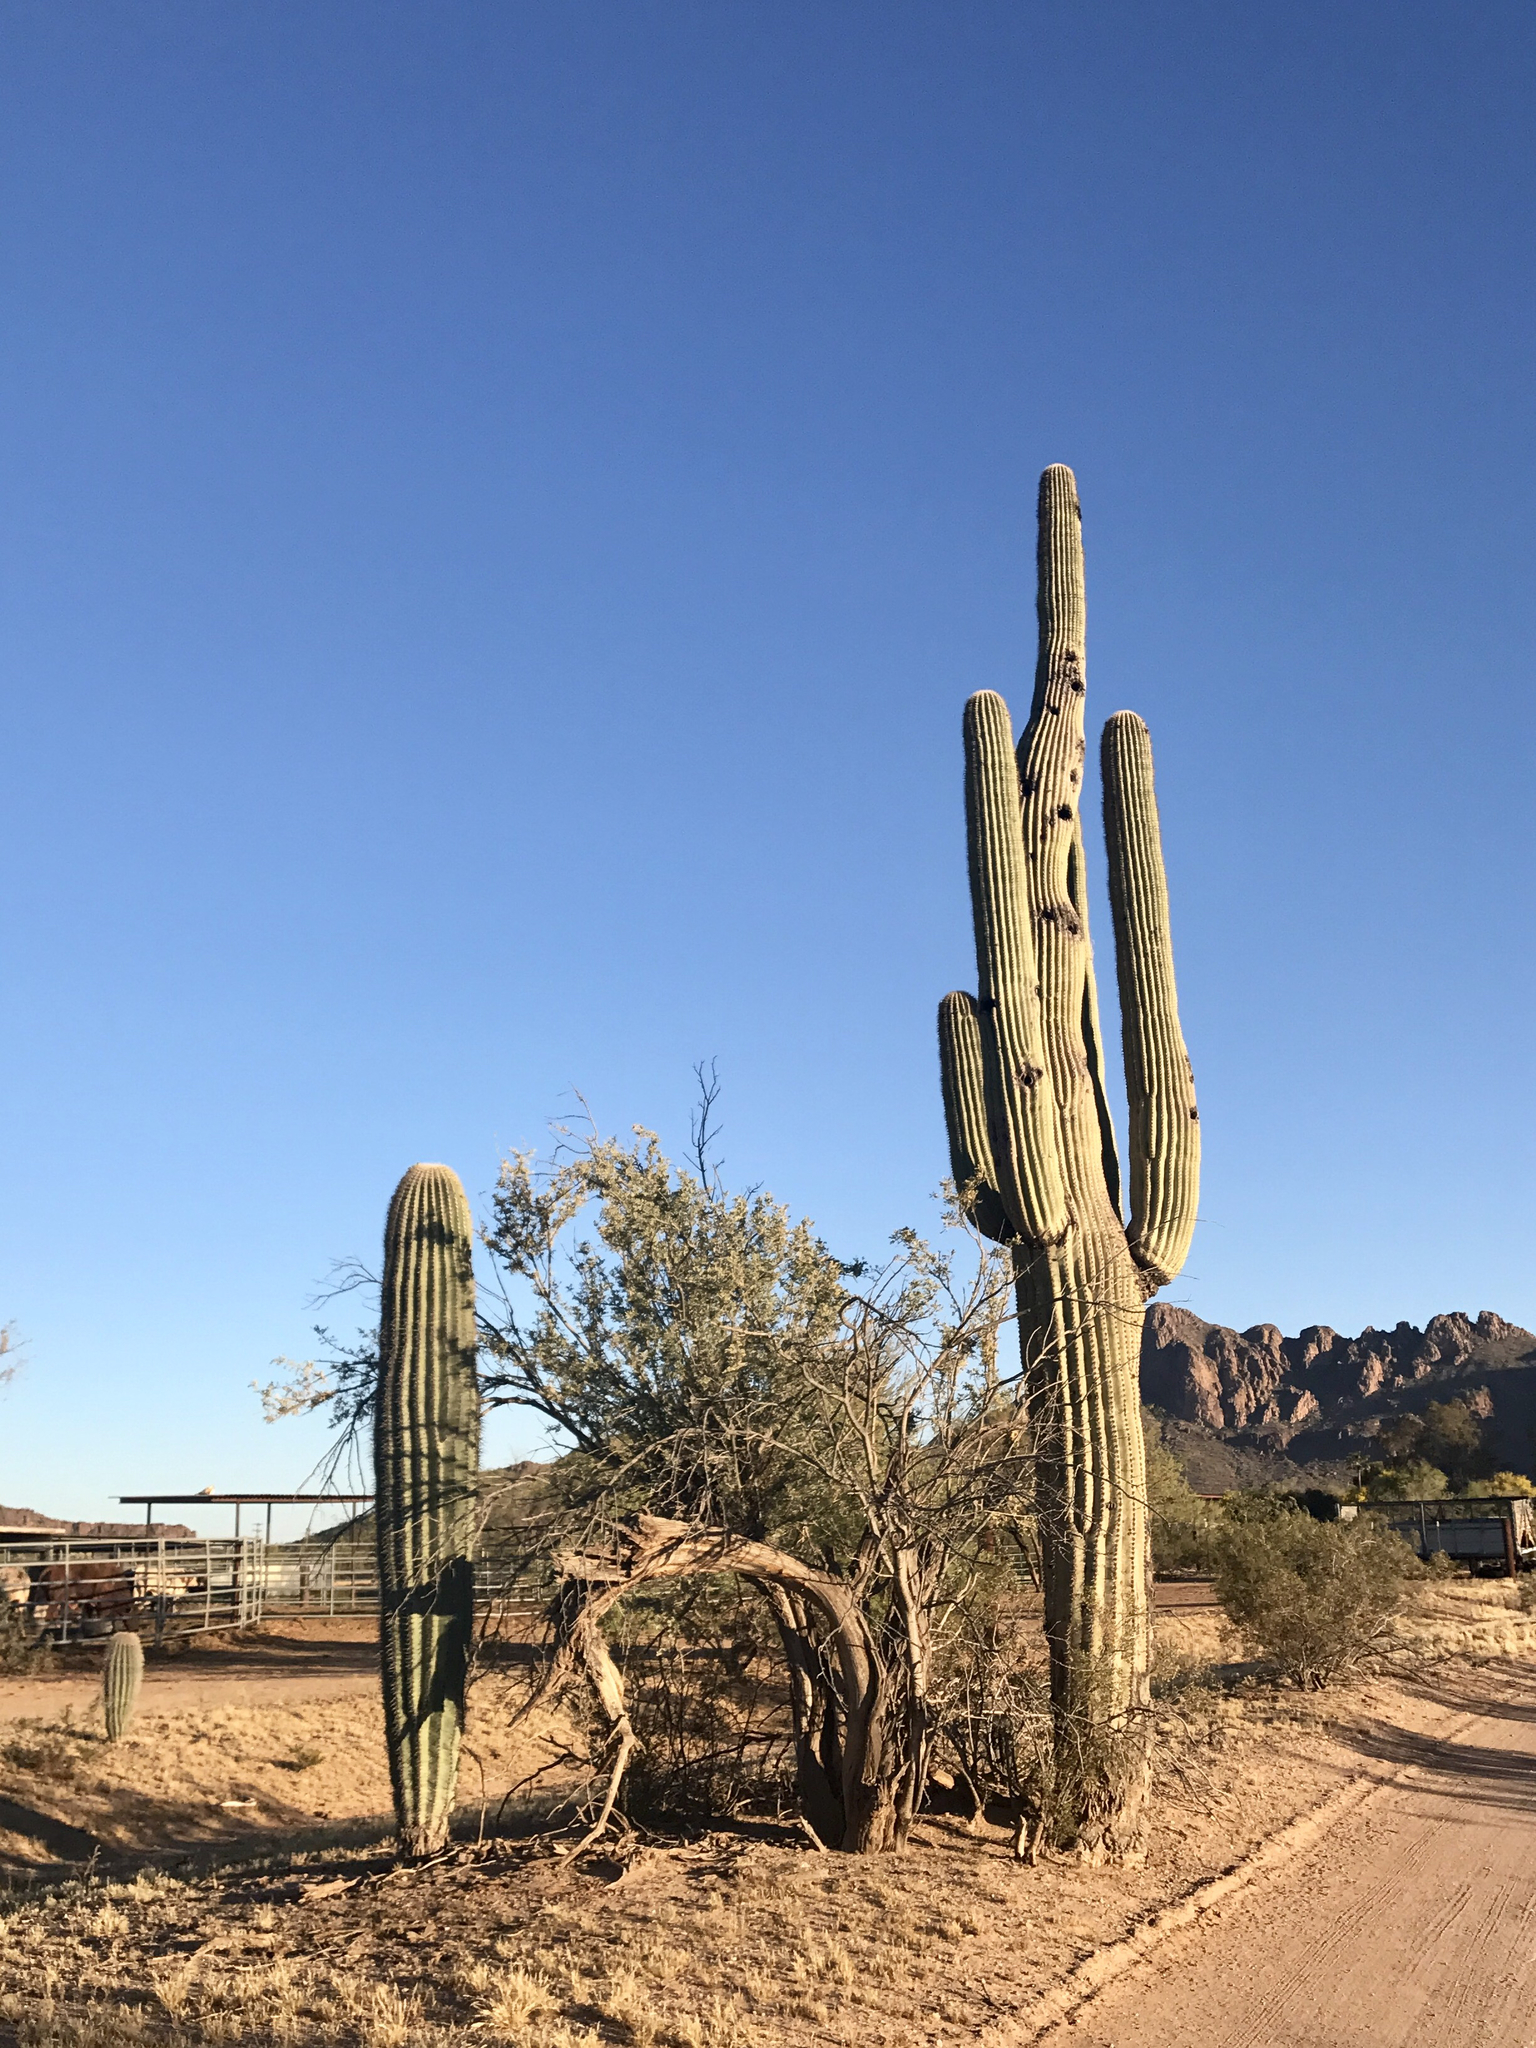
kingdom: Plantae
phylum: Tracheophyta
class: Magnoliopsida
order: Caryophyllales
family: Cactaceae
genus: Carnegiea
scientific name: Carnegiea gigantea
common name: Saguaro
